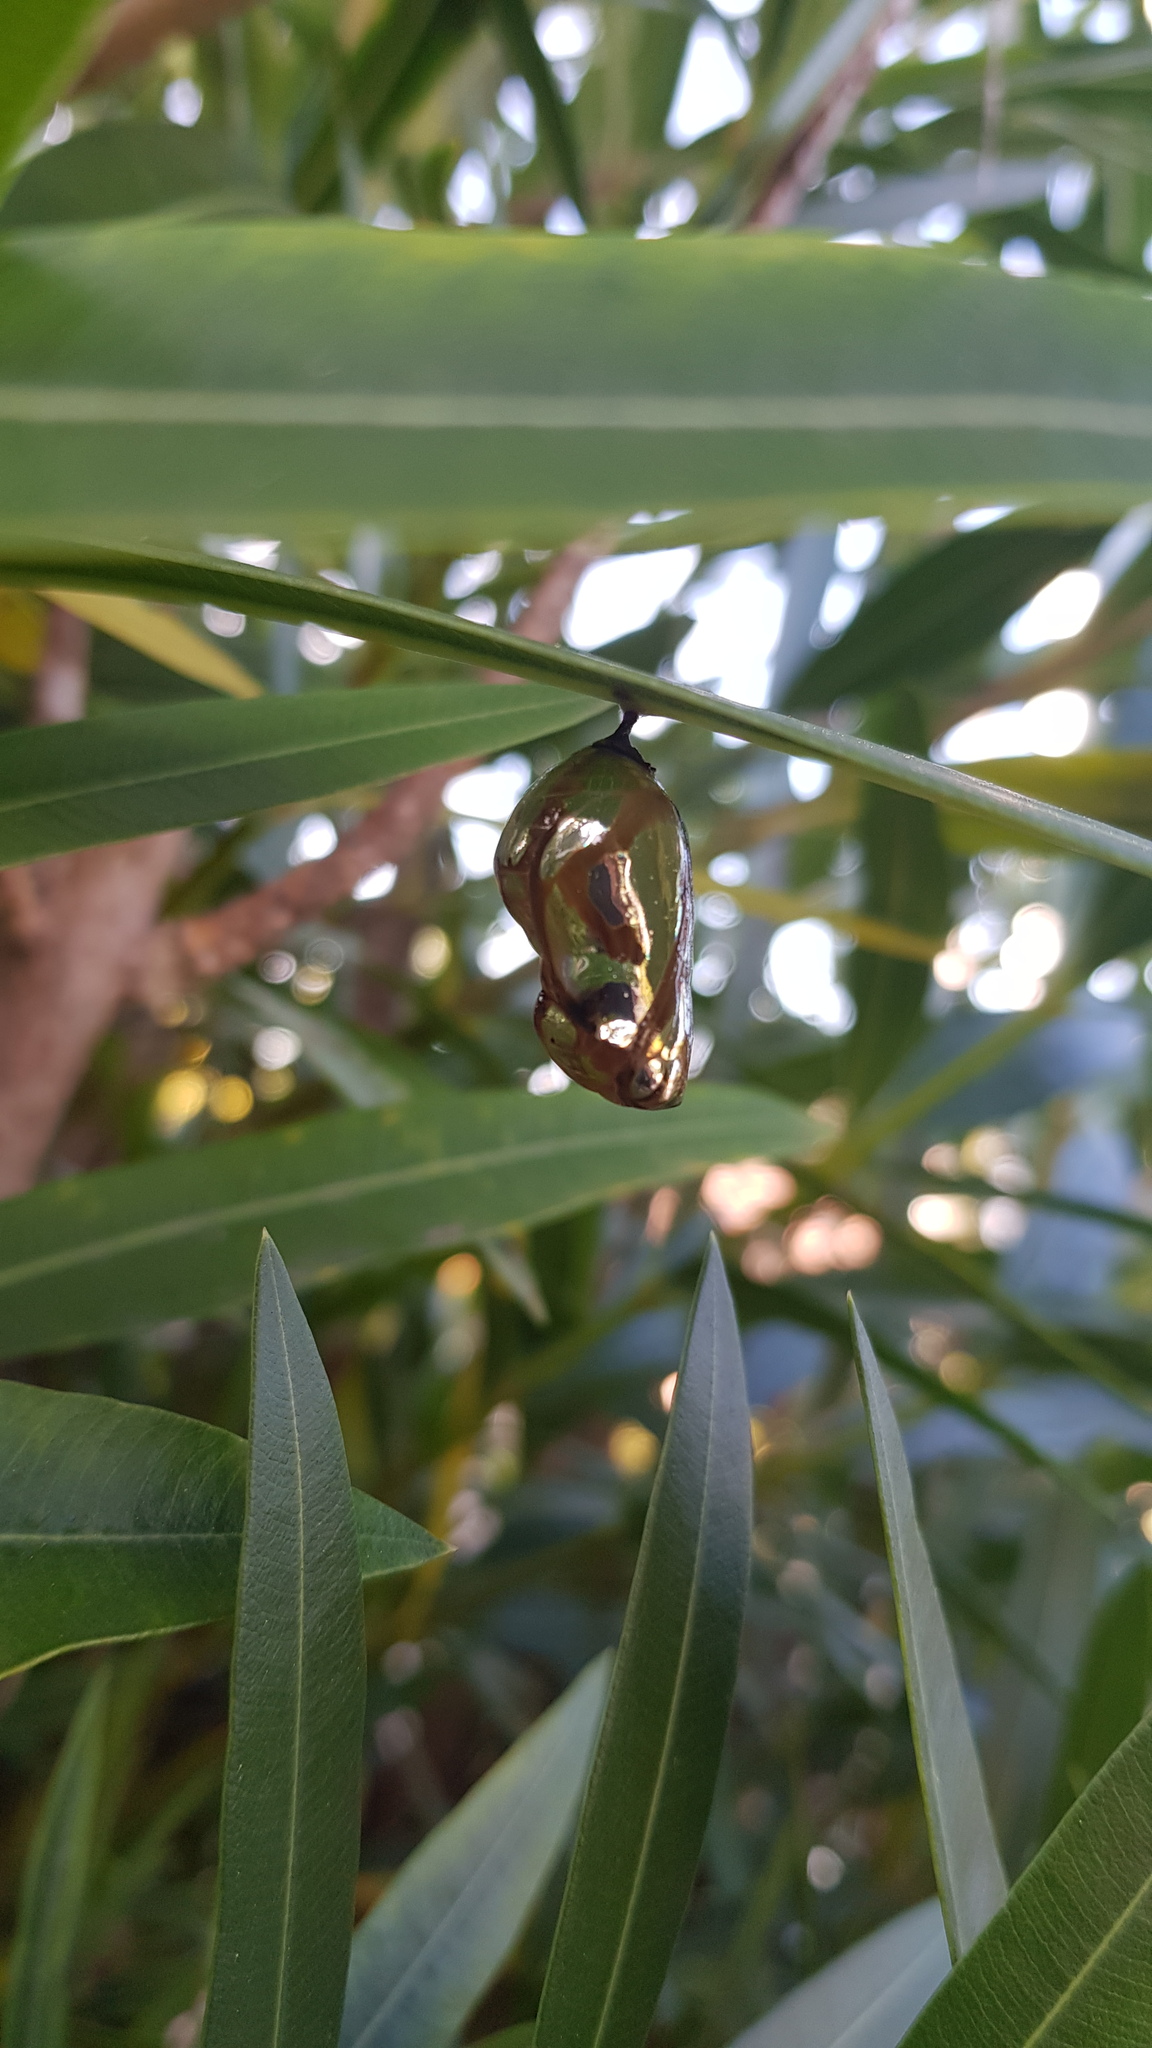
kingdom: Animalia
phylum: Arthropoda
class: Insecta
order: Lepidoptera
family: Nymphalidae
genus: Euploea
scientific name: Euploea core
